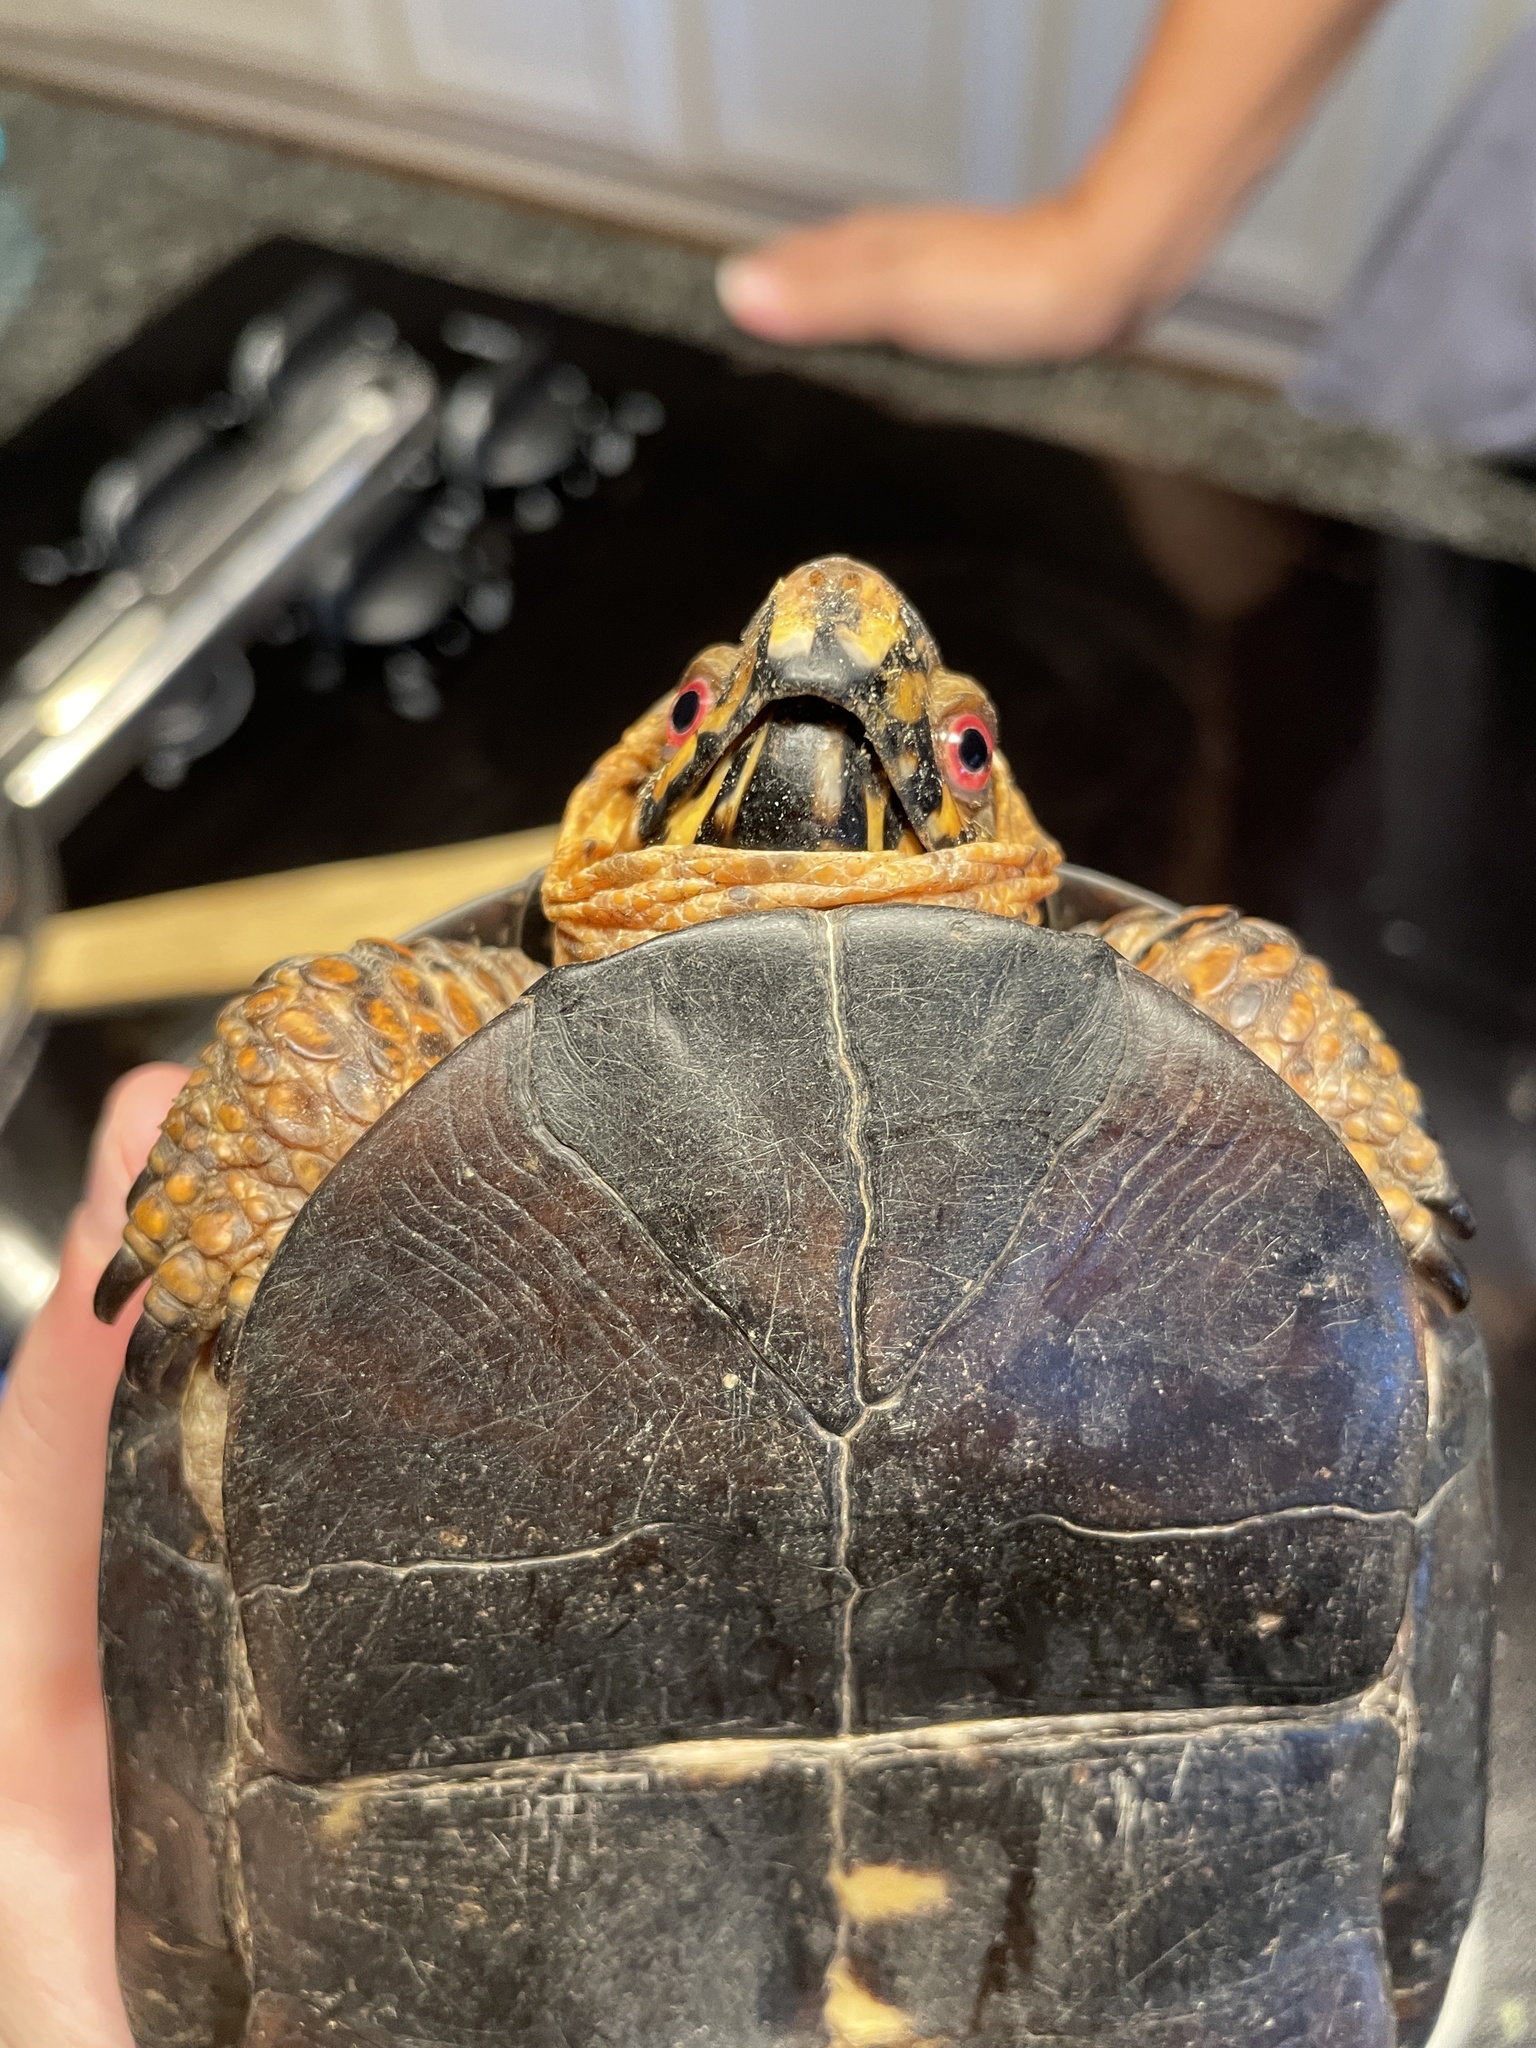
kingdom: Animalia
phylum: Chordata
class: Testudines
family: Emydidae
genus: Terrapene
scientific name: Terrapene carolina
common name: Common box turtle
